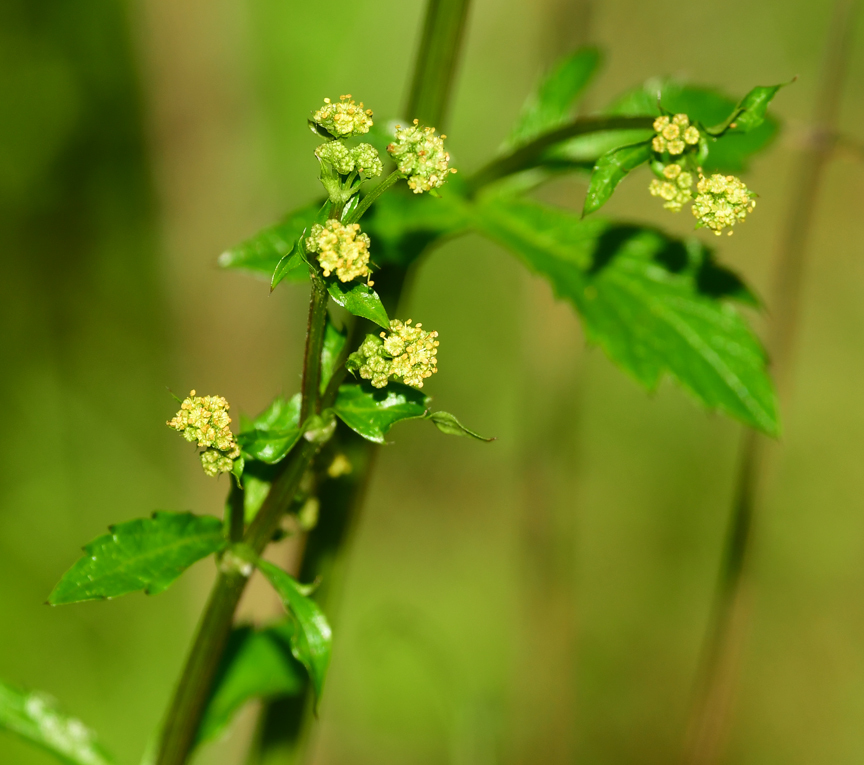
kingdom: Plantae
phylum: Tracheophyta
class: Magnoliopsida
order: Apiales
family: Apiaceae
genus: Sanicula
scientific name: Sanicula crassicaulis
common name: Western snakeroot
